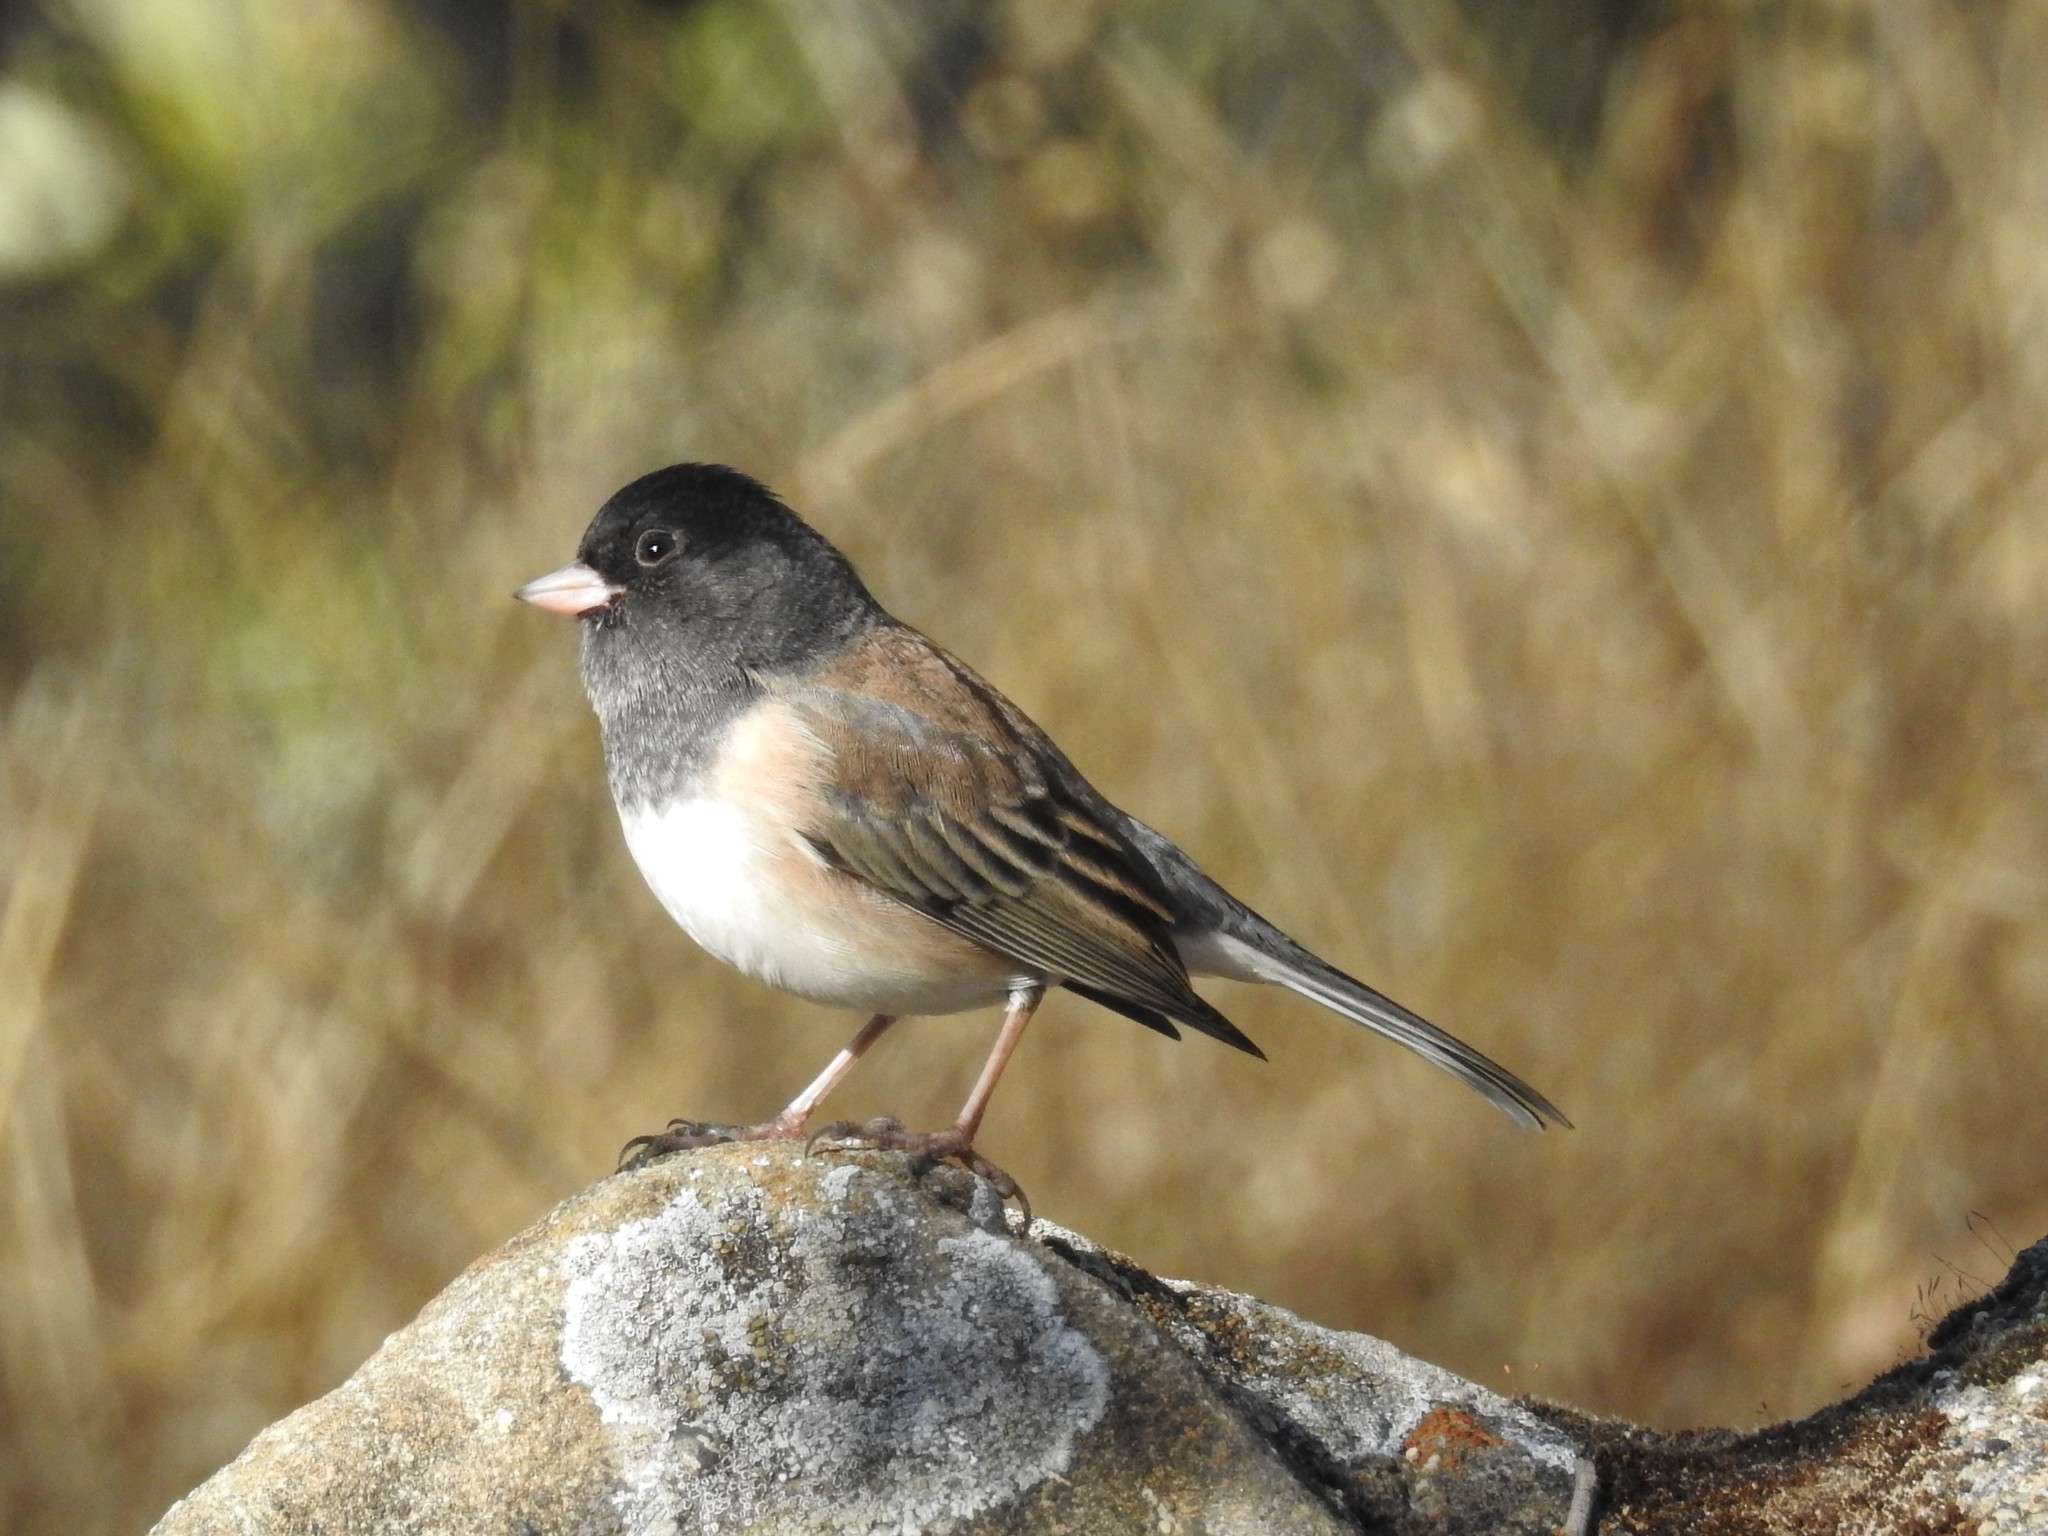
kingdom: Animalia
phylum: Chordata
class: Aves
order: Passeriformes
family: Passerellidae
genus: Junco
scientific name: Junco hyemalis
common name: Dark-eyed junco
